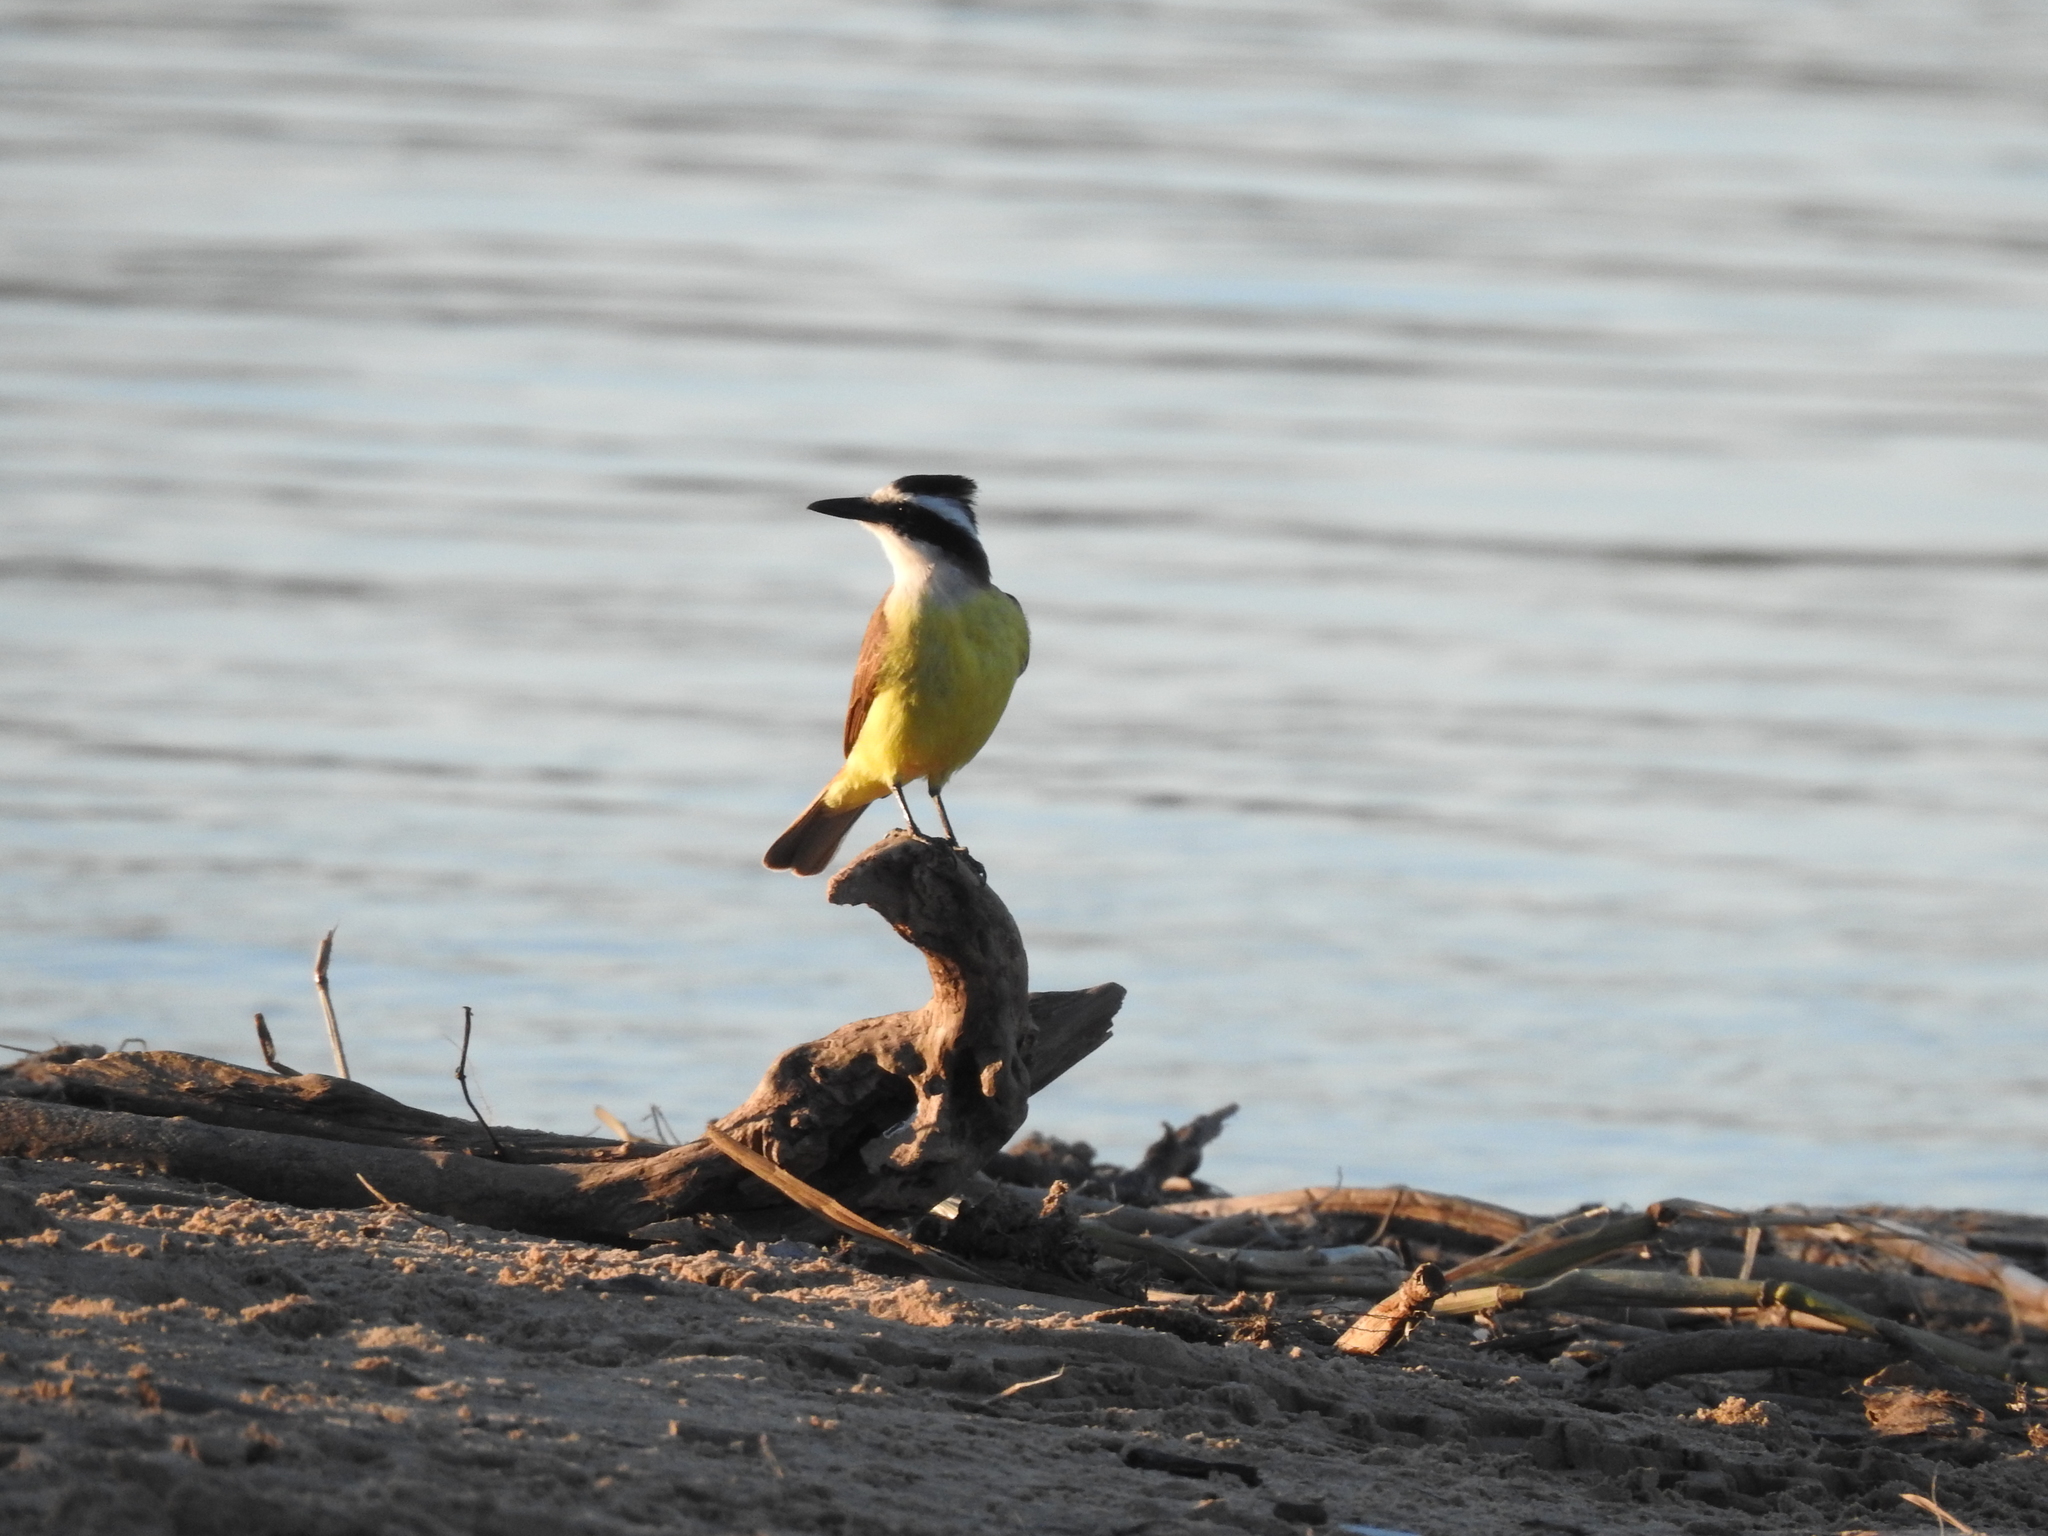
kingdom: Animalia
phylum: Chordata
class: Aves
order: Passeriformes
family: Tyrannidae
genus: Pitangus
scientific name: Pitangus sulphuratus
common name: Great kiskadee
